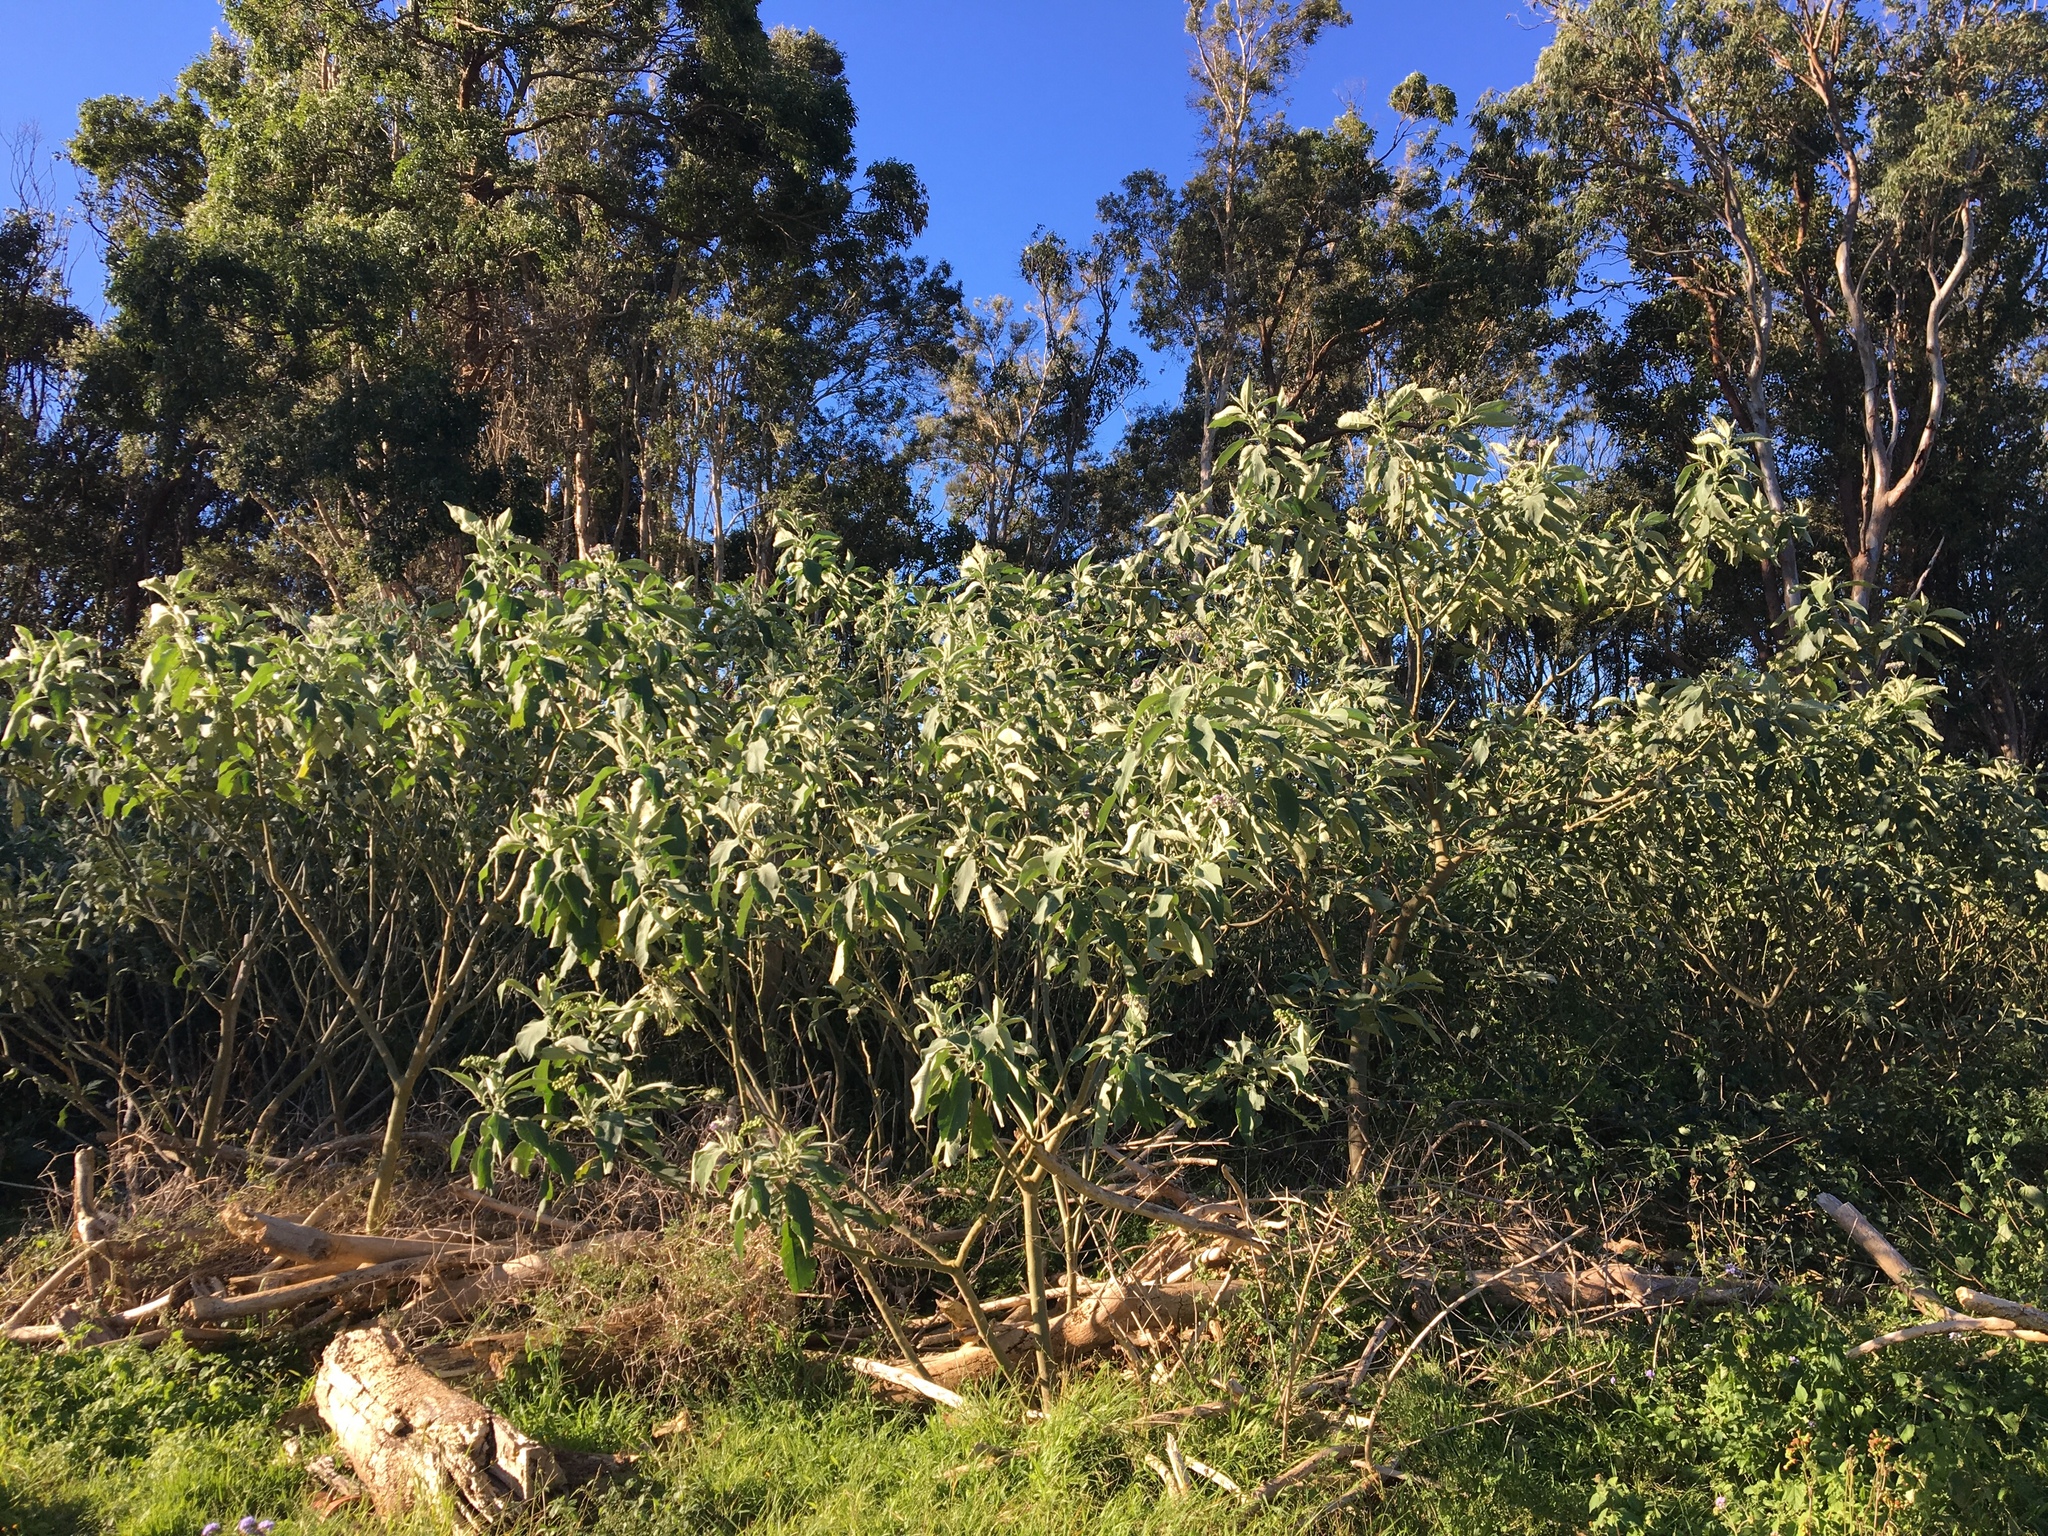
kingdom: Plantae
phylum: Tracheophyta
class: Magnoliopsida
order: Solanales
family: Solanaceae
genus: Solanum
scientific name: Solanum mauritianum
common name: Earleaf nightshade
